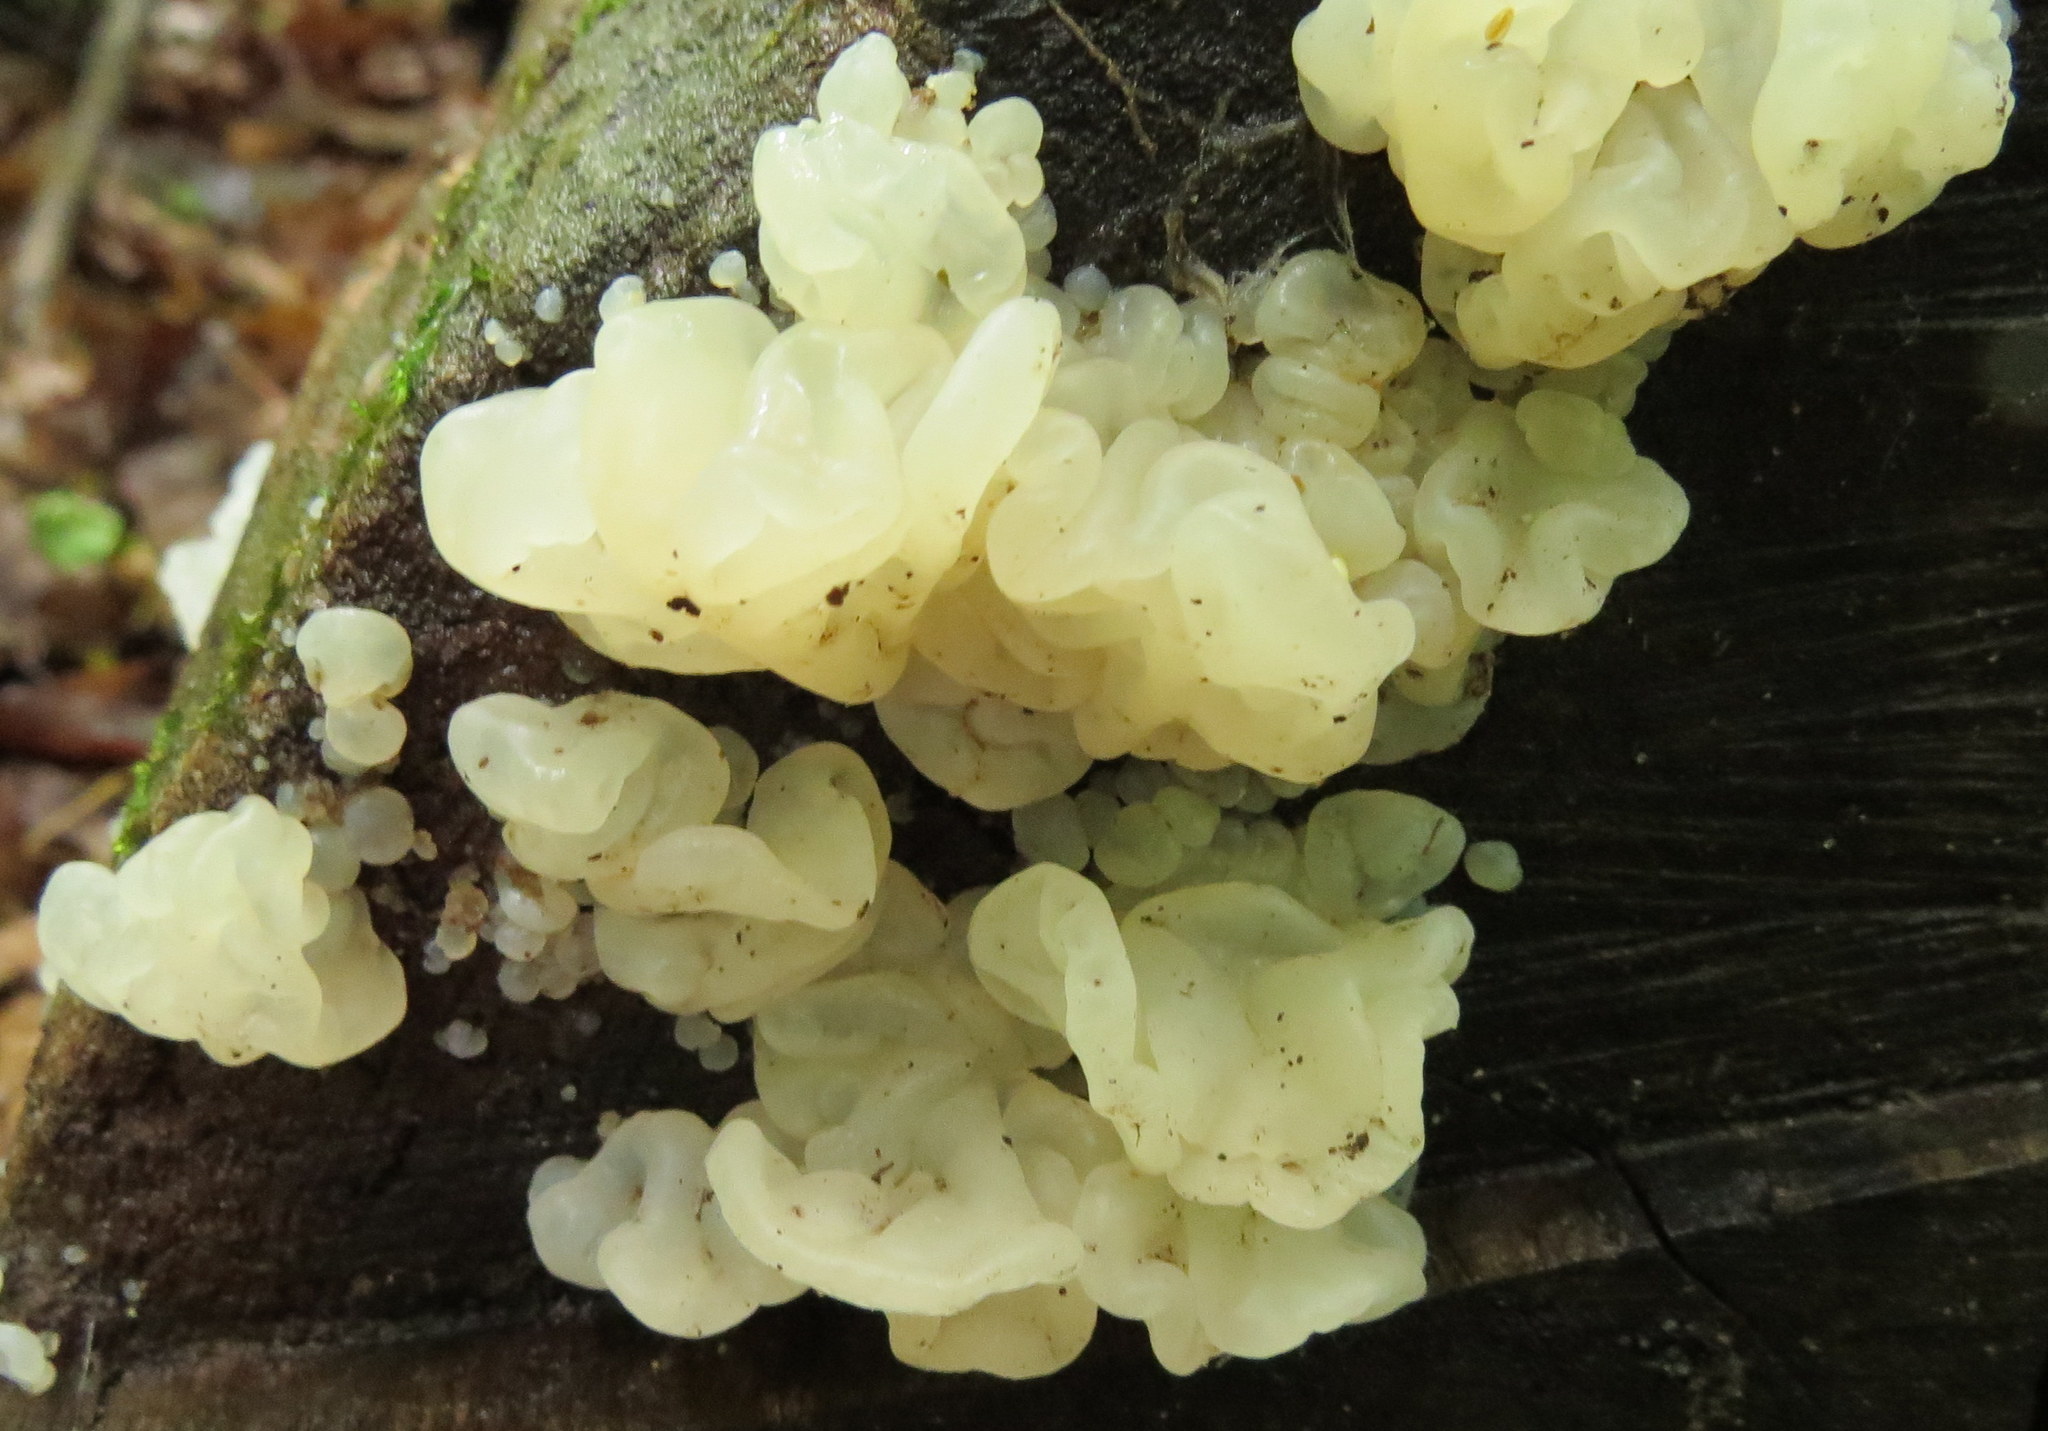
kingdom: Fungi
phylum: Basidiomycota
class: Agaricomycetes
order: Auriculariales
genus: Ductifera
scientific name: Ductifera pululahuana
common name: White jelly fungus
